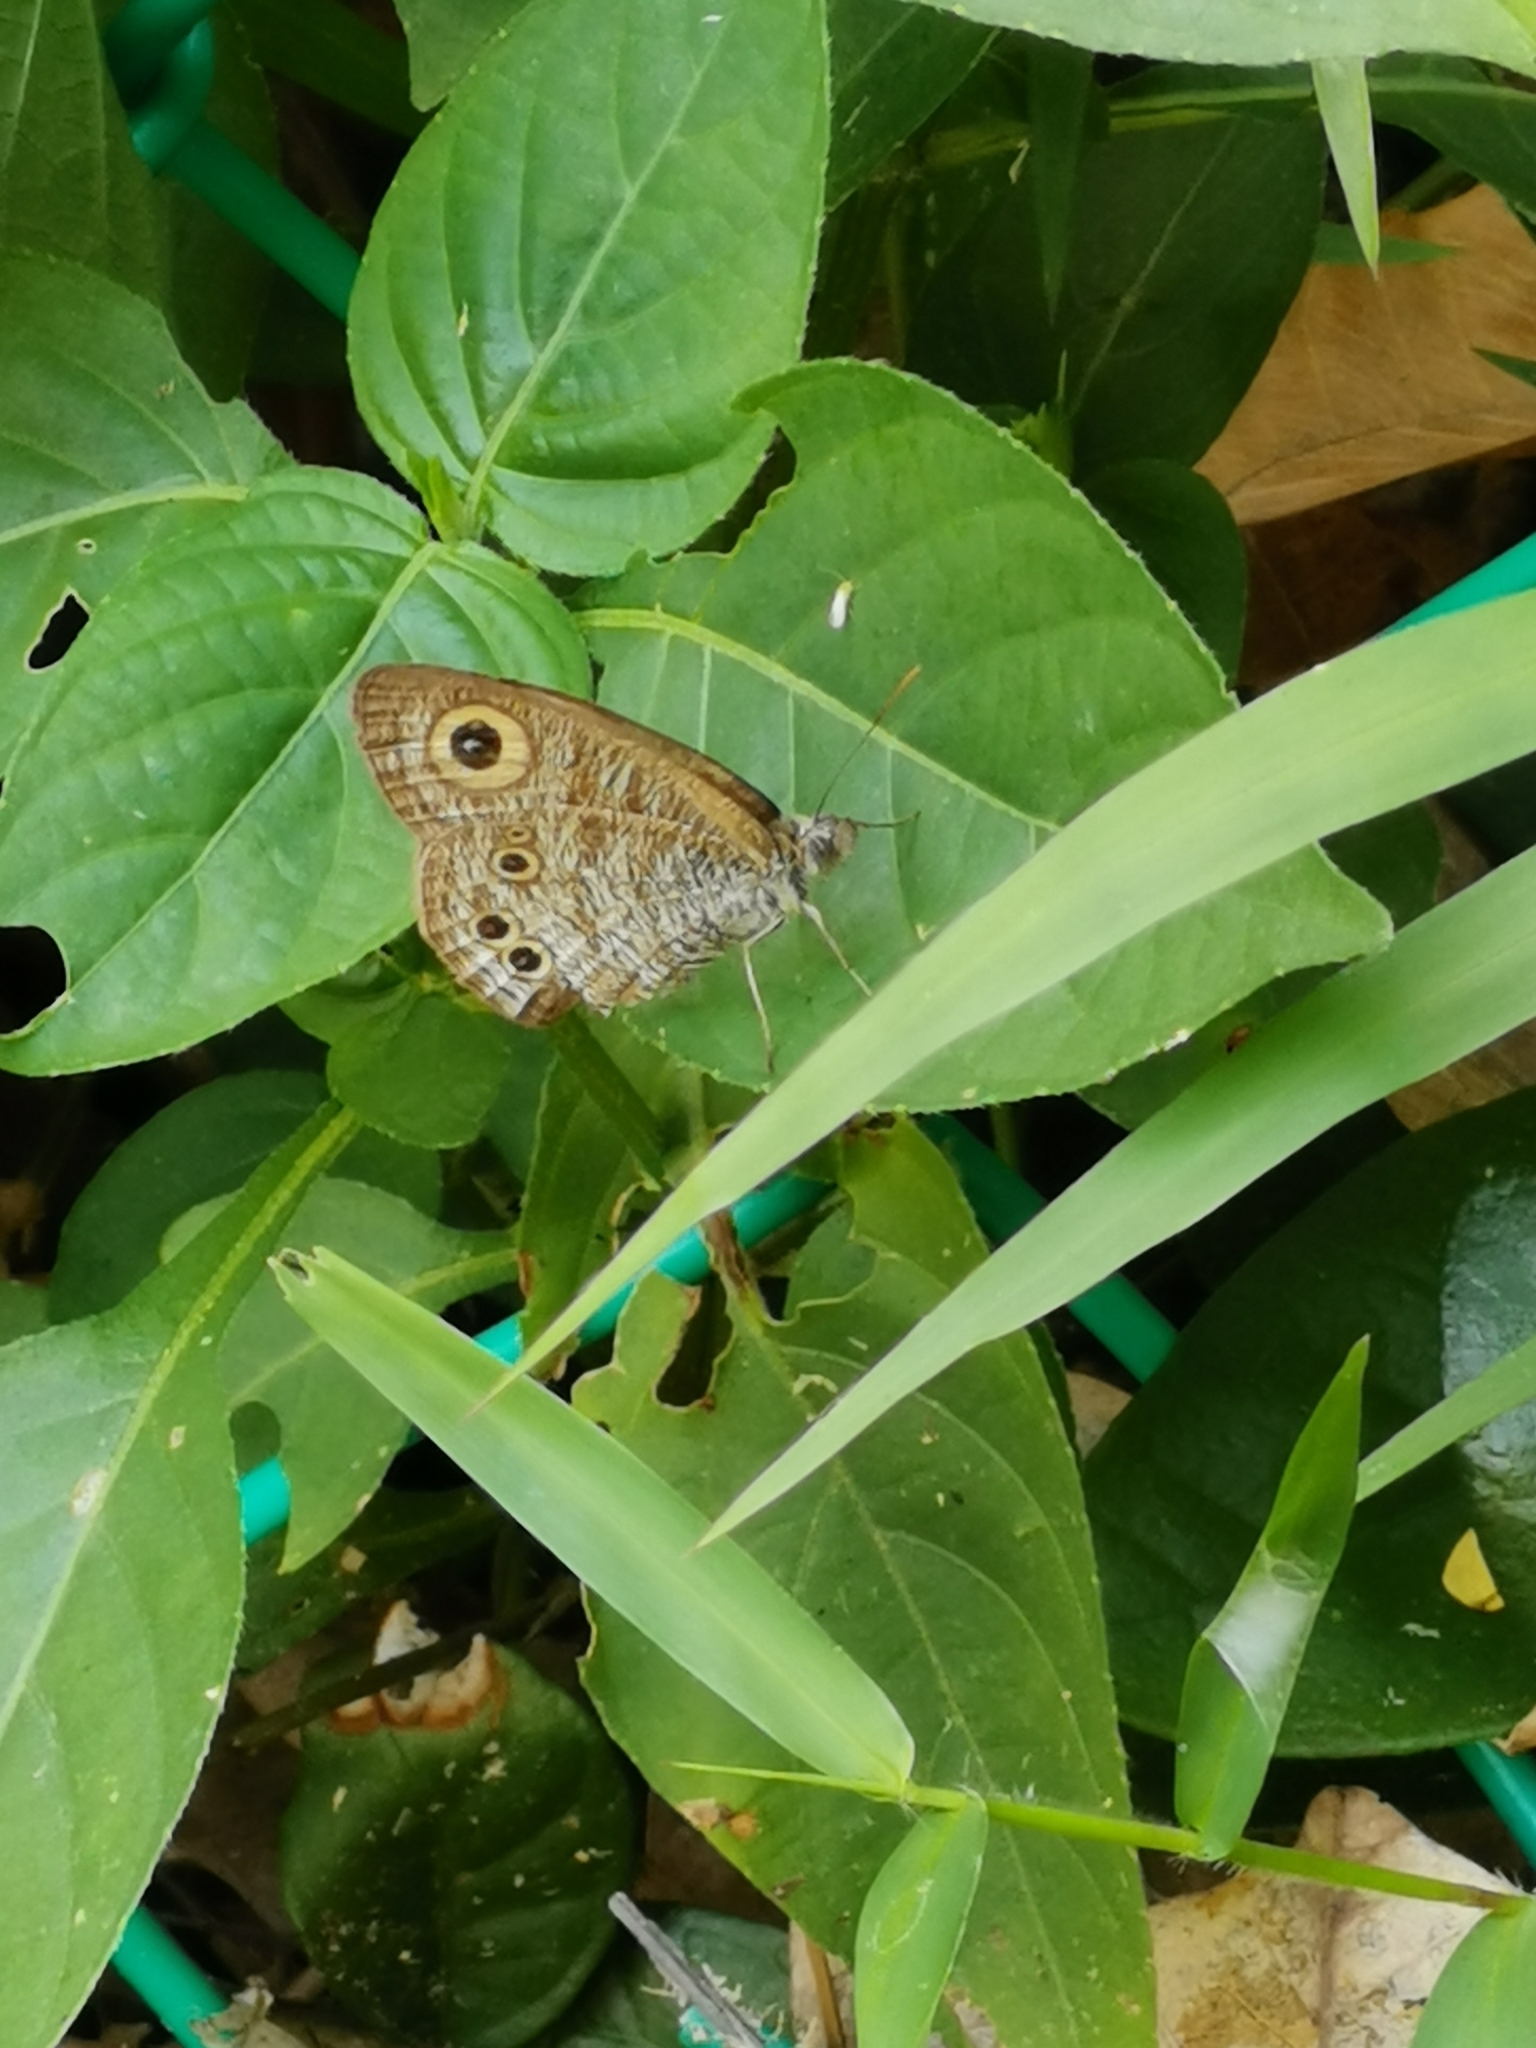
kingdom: Animalia
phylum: Arthropoda
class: Insecta
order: Lepidoptera
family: Nymphalidae
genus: Ypthima
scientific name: Ypthima baldus
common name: Common five-ring
